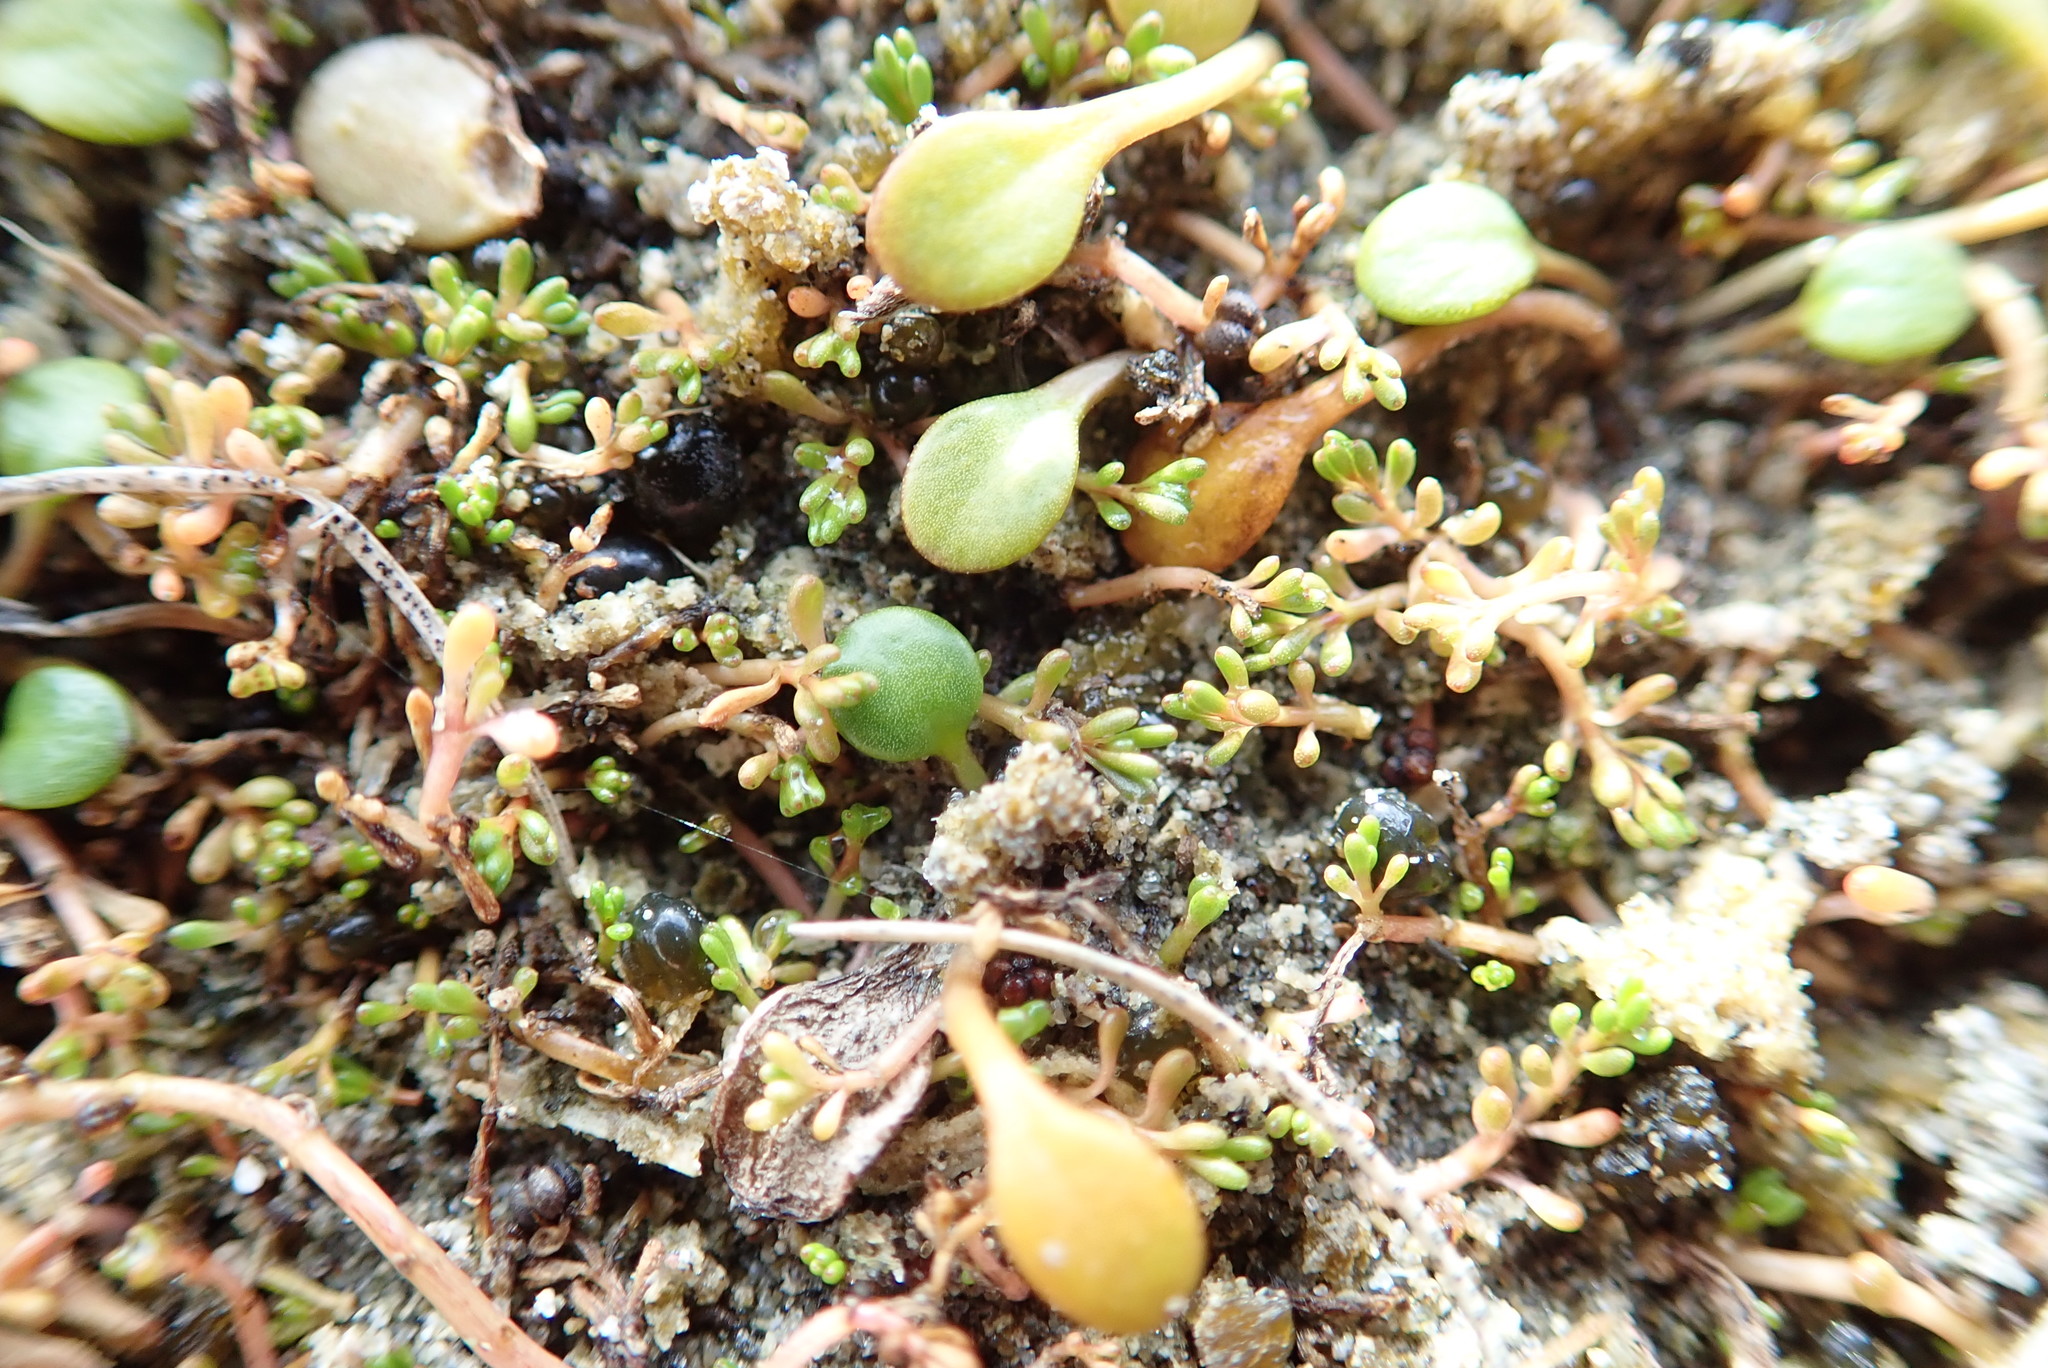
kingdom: Plantae
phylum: Tracheophyta
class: Magnoliopsida
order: Saxifragales
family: Haloragaceae
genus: Myriophyllum
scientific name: Myriophyllum votschii
